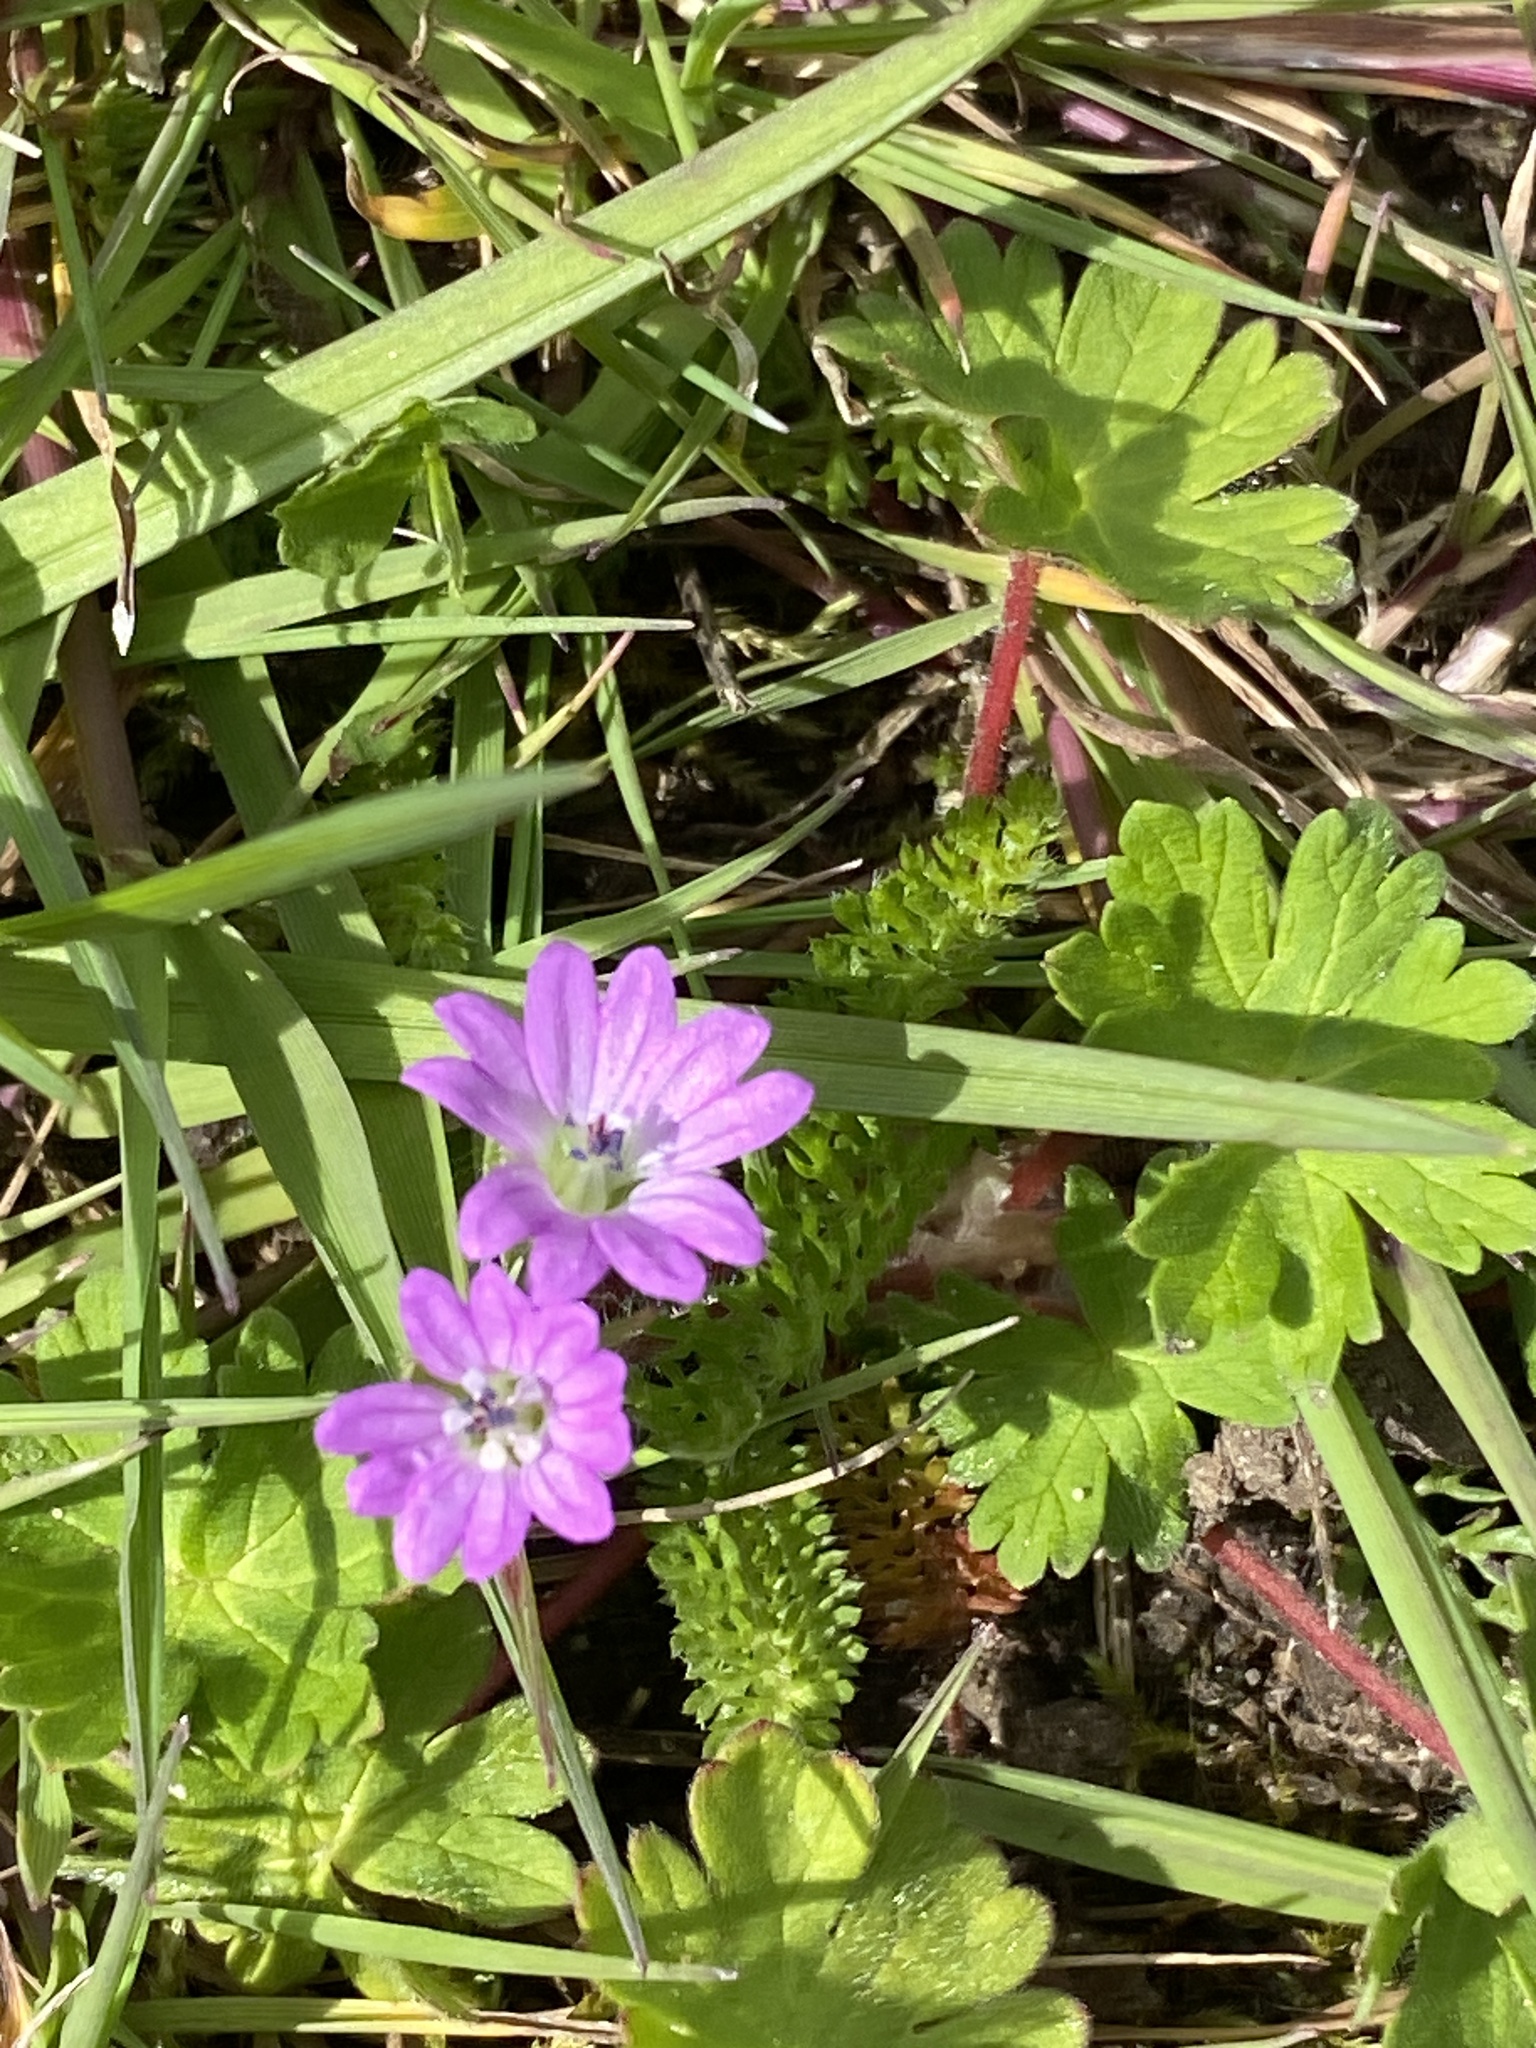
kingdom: Plantae
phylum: Tracheophyta
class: Magnoliopsida
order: Geraniales
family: Geraniaceae
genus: Geranium
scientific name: Geranium molle
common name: Dove's-foot crane's-bill
